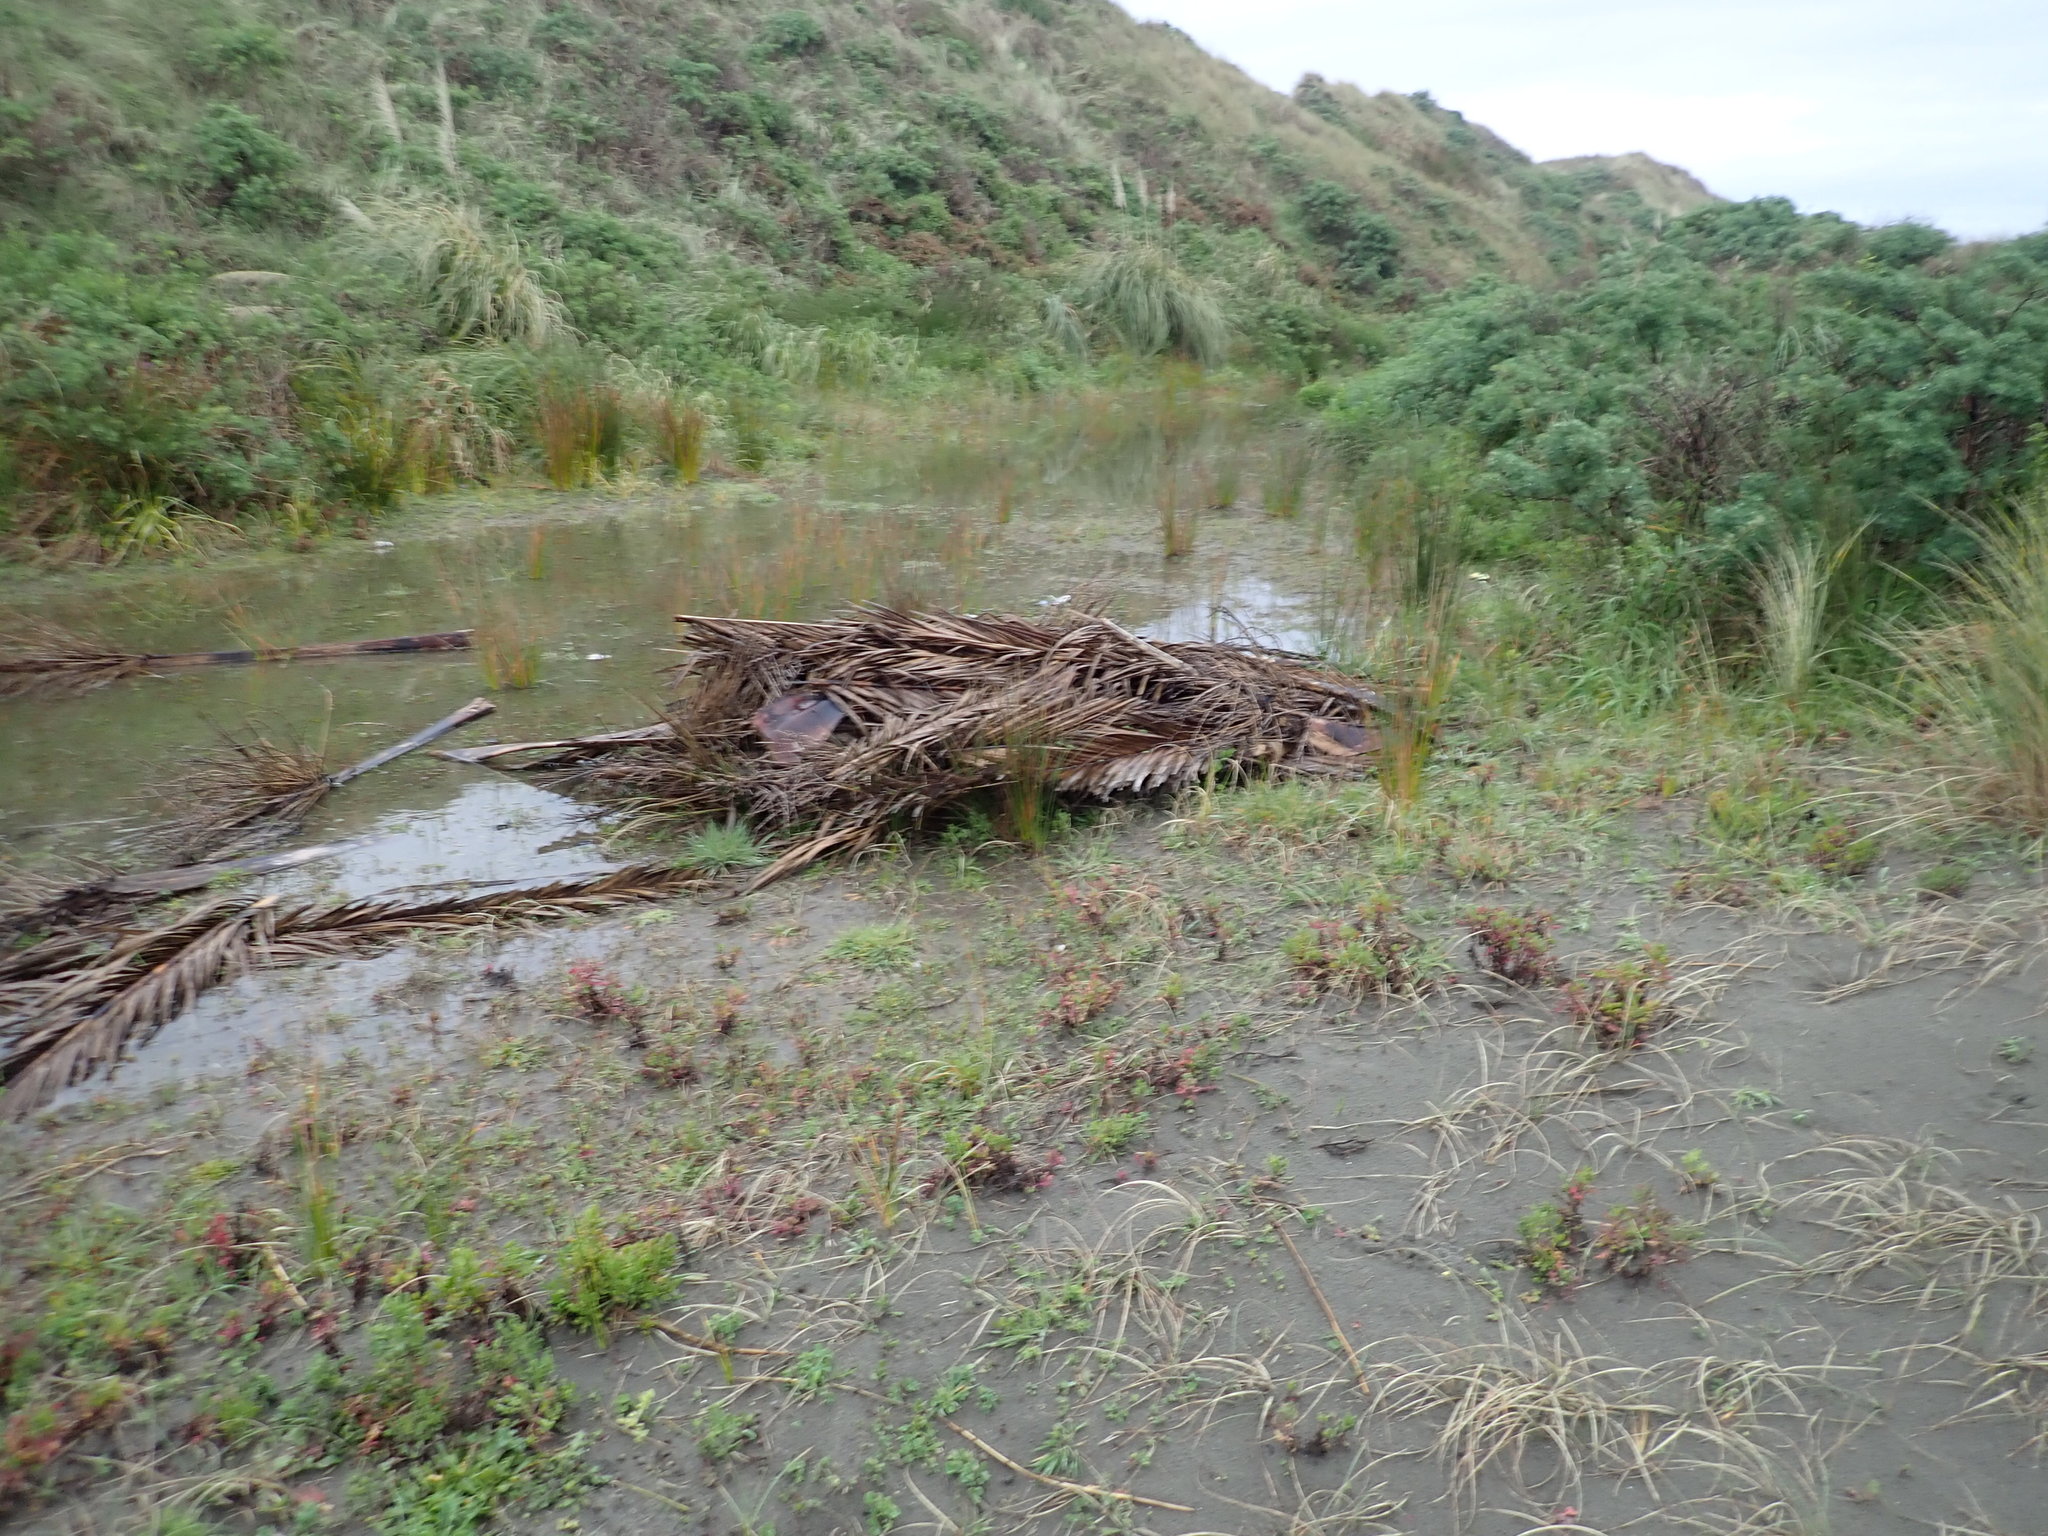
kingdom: Plantae
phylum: Tracheophyta
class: Liliopsida
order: Arecales
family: Arecaceae
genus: Phoenix
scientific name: Phoenix canariensis
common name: Canary island date palm
